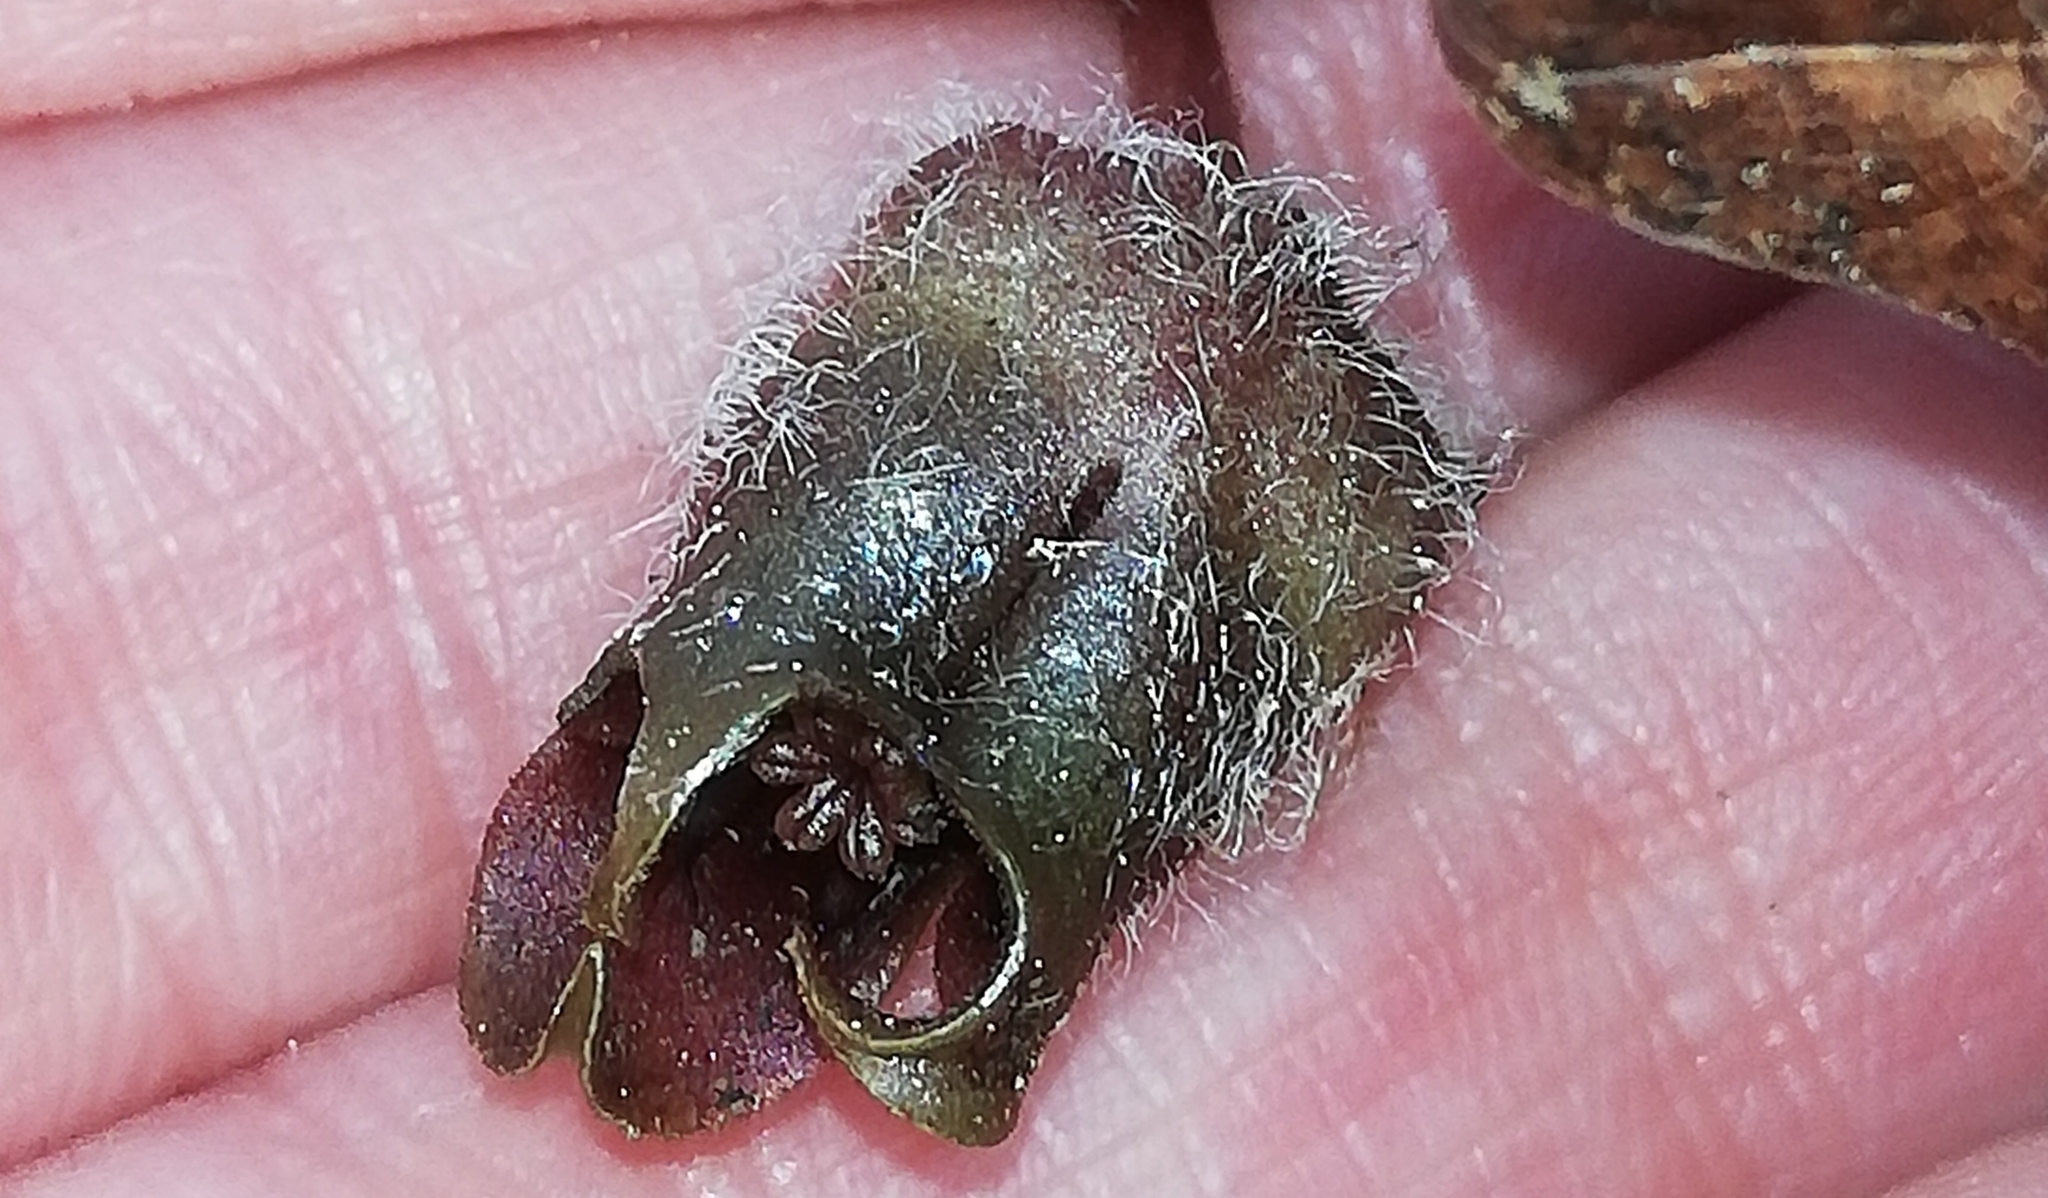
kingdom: Plantae
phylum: Tracheophyta
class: Magnoliopsida
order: Piperales
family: Aristolochiaceae
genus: Asarum
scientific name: Asarum europaeum
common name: Asarabacca
